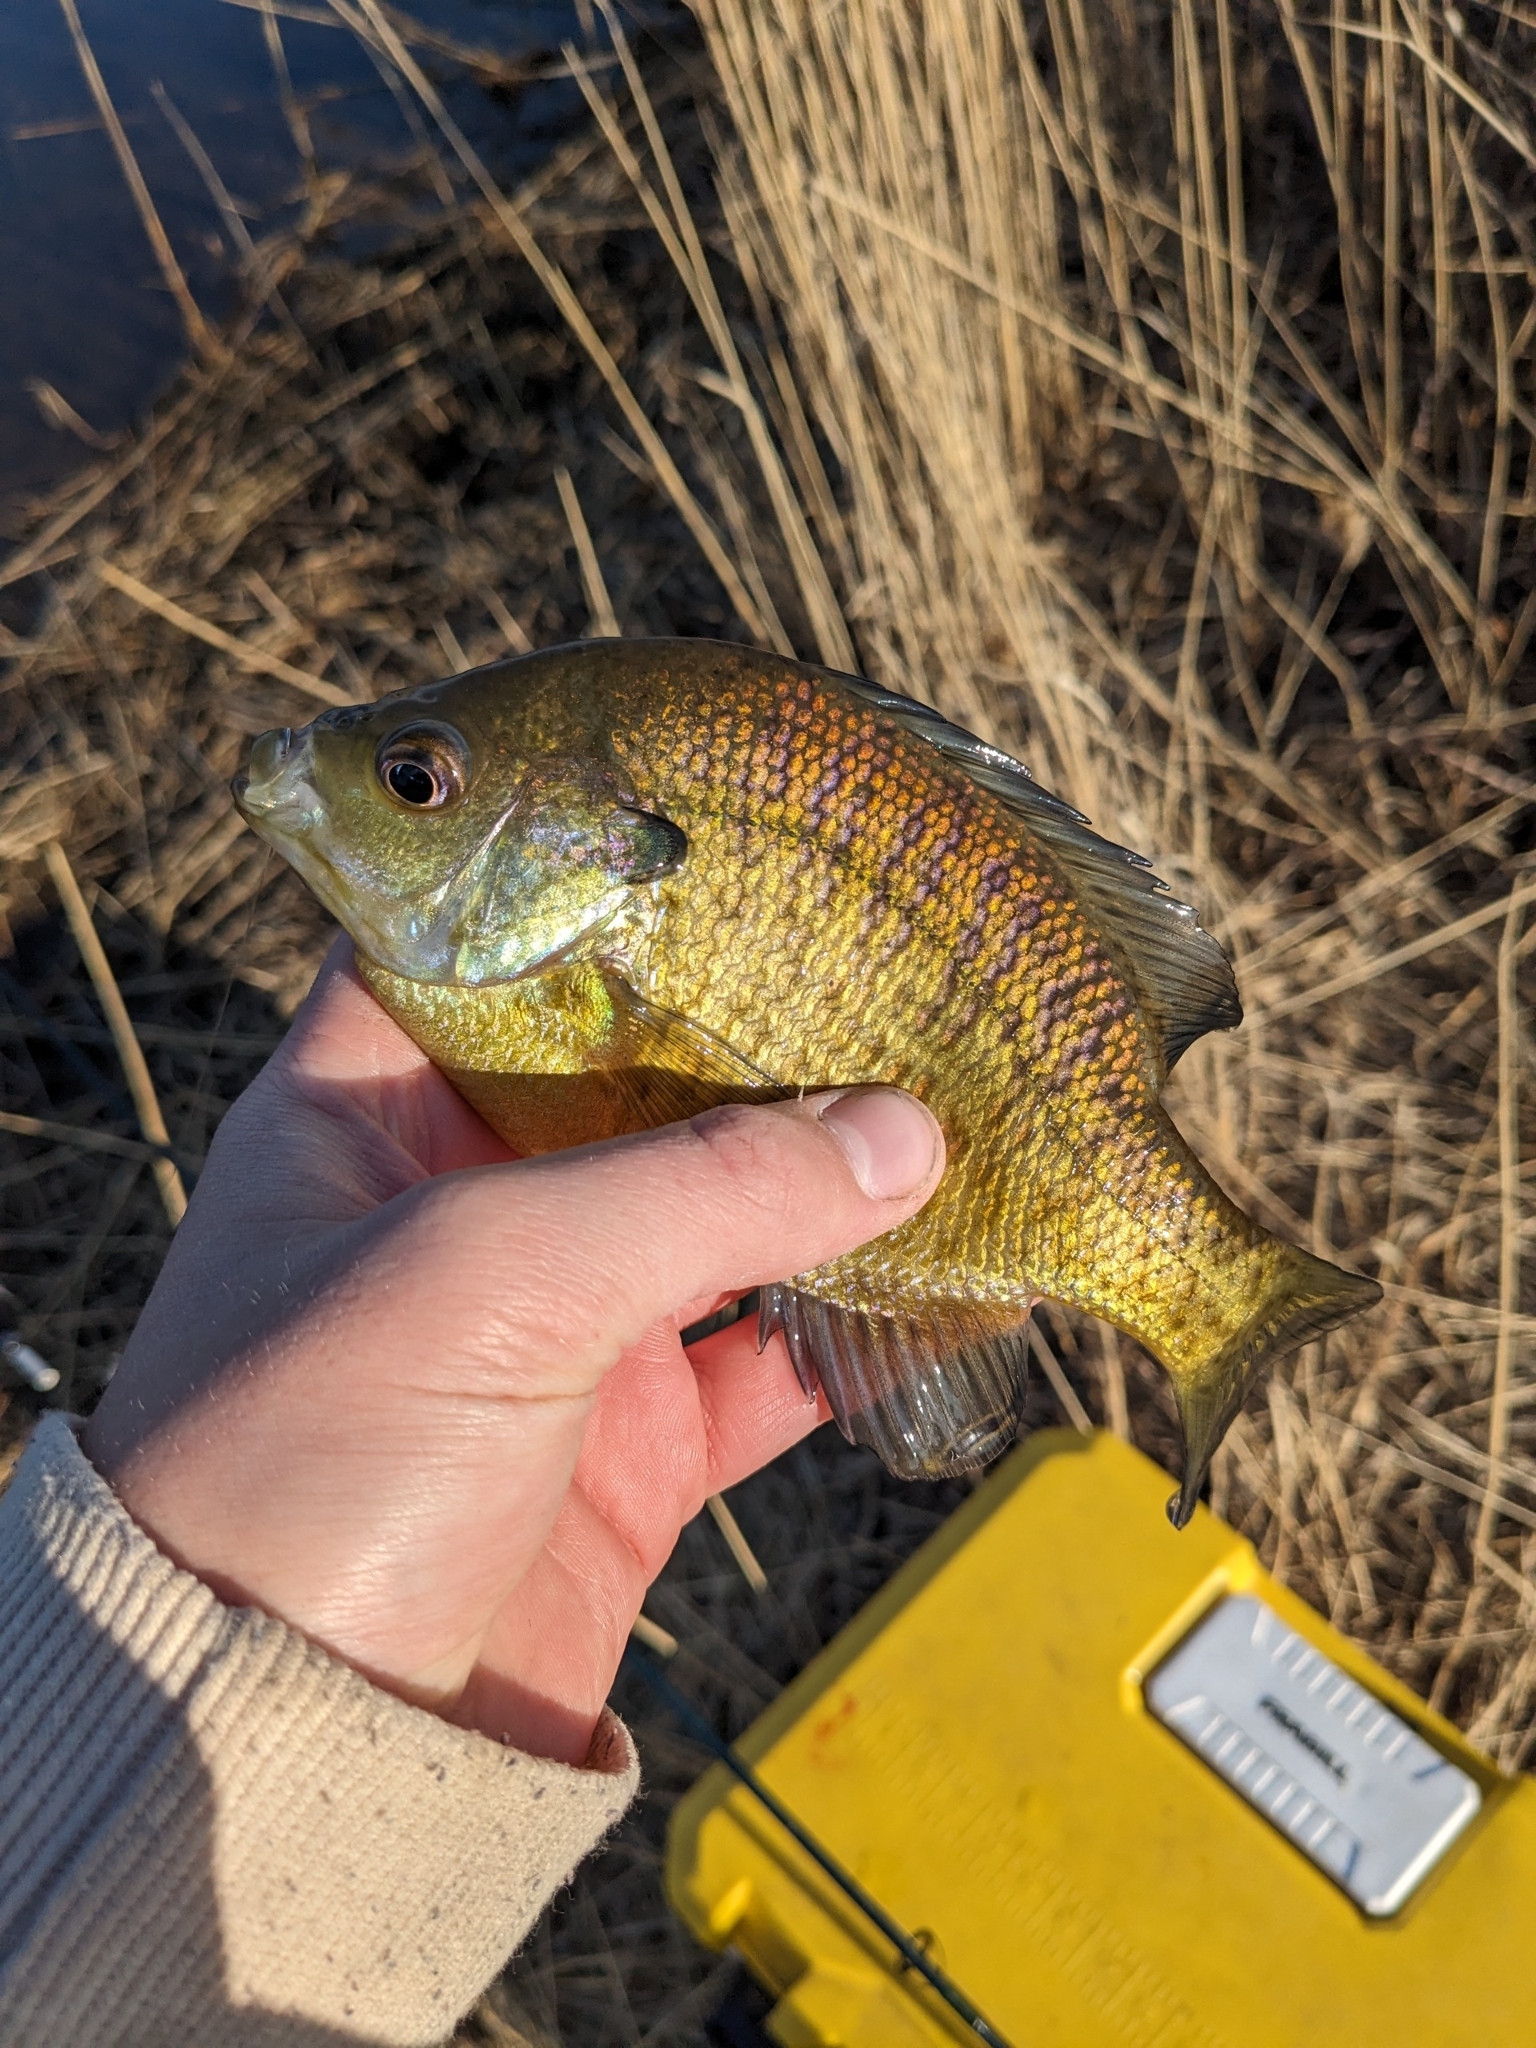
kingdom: Animalia
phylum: Chordata
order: Perciformes
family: Centrarchidae
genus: Lepomis
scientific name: Lepomis macrochirus
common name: Bluegill
